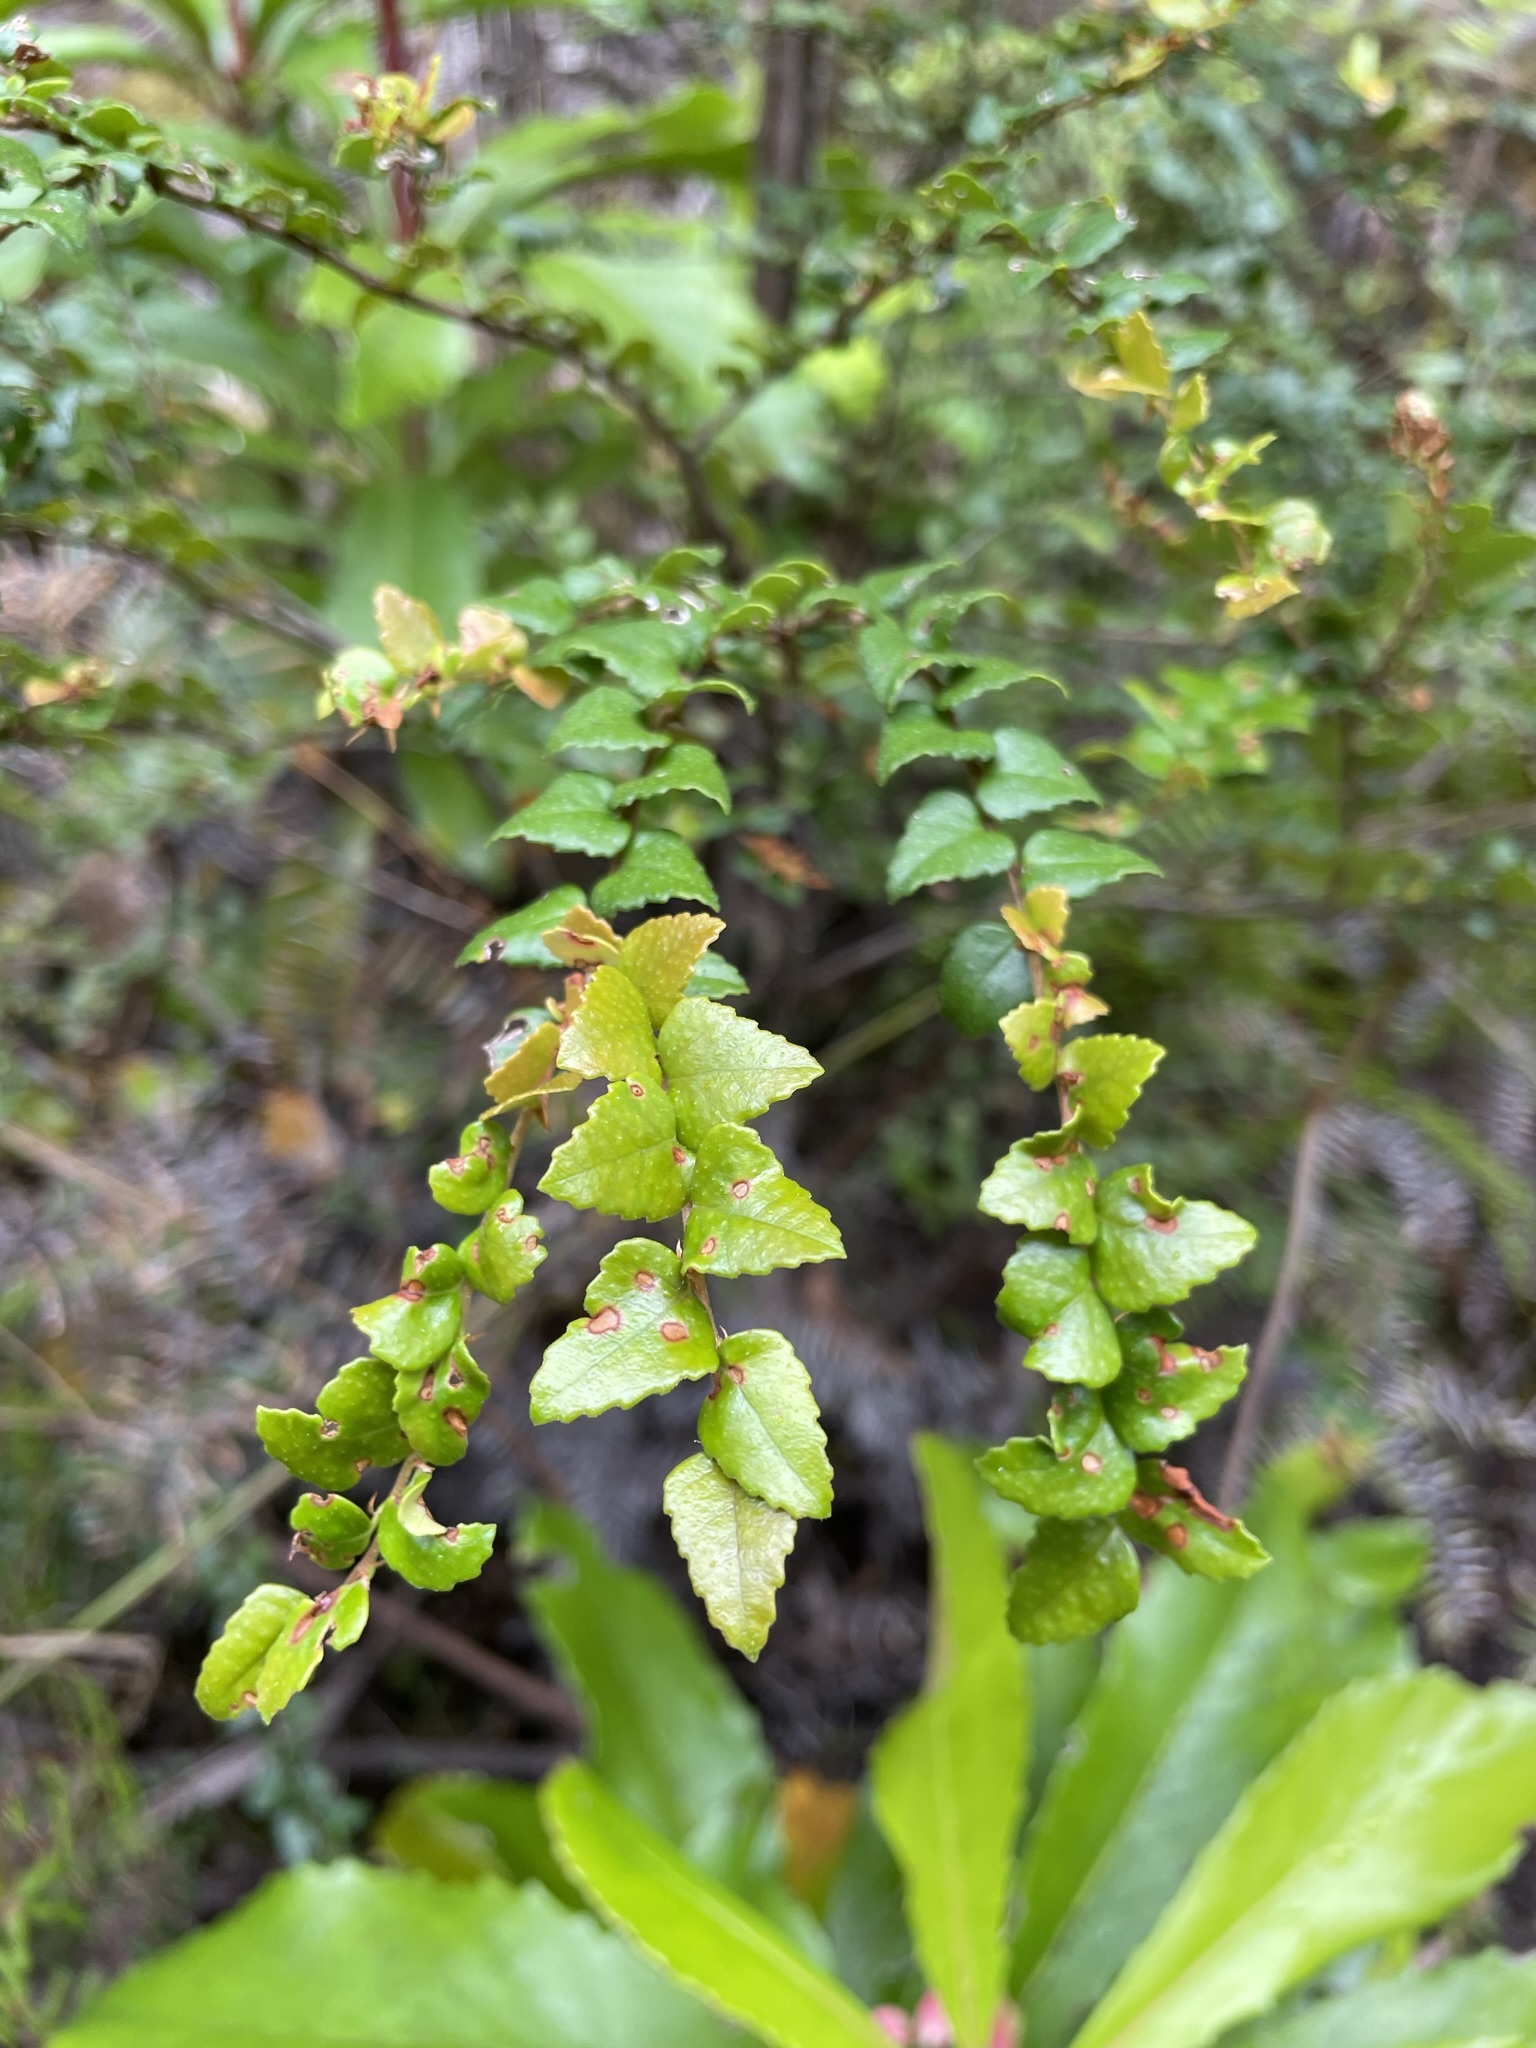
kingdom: Plantae
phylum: Tracheophyta
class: Magnoliopsida
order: Fagales
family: Nothofagaceae
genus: Nothofagus
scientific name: Nothofagus cunninghamii
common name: Myrtle beech
